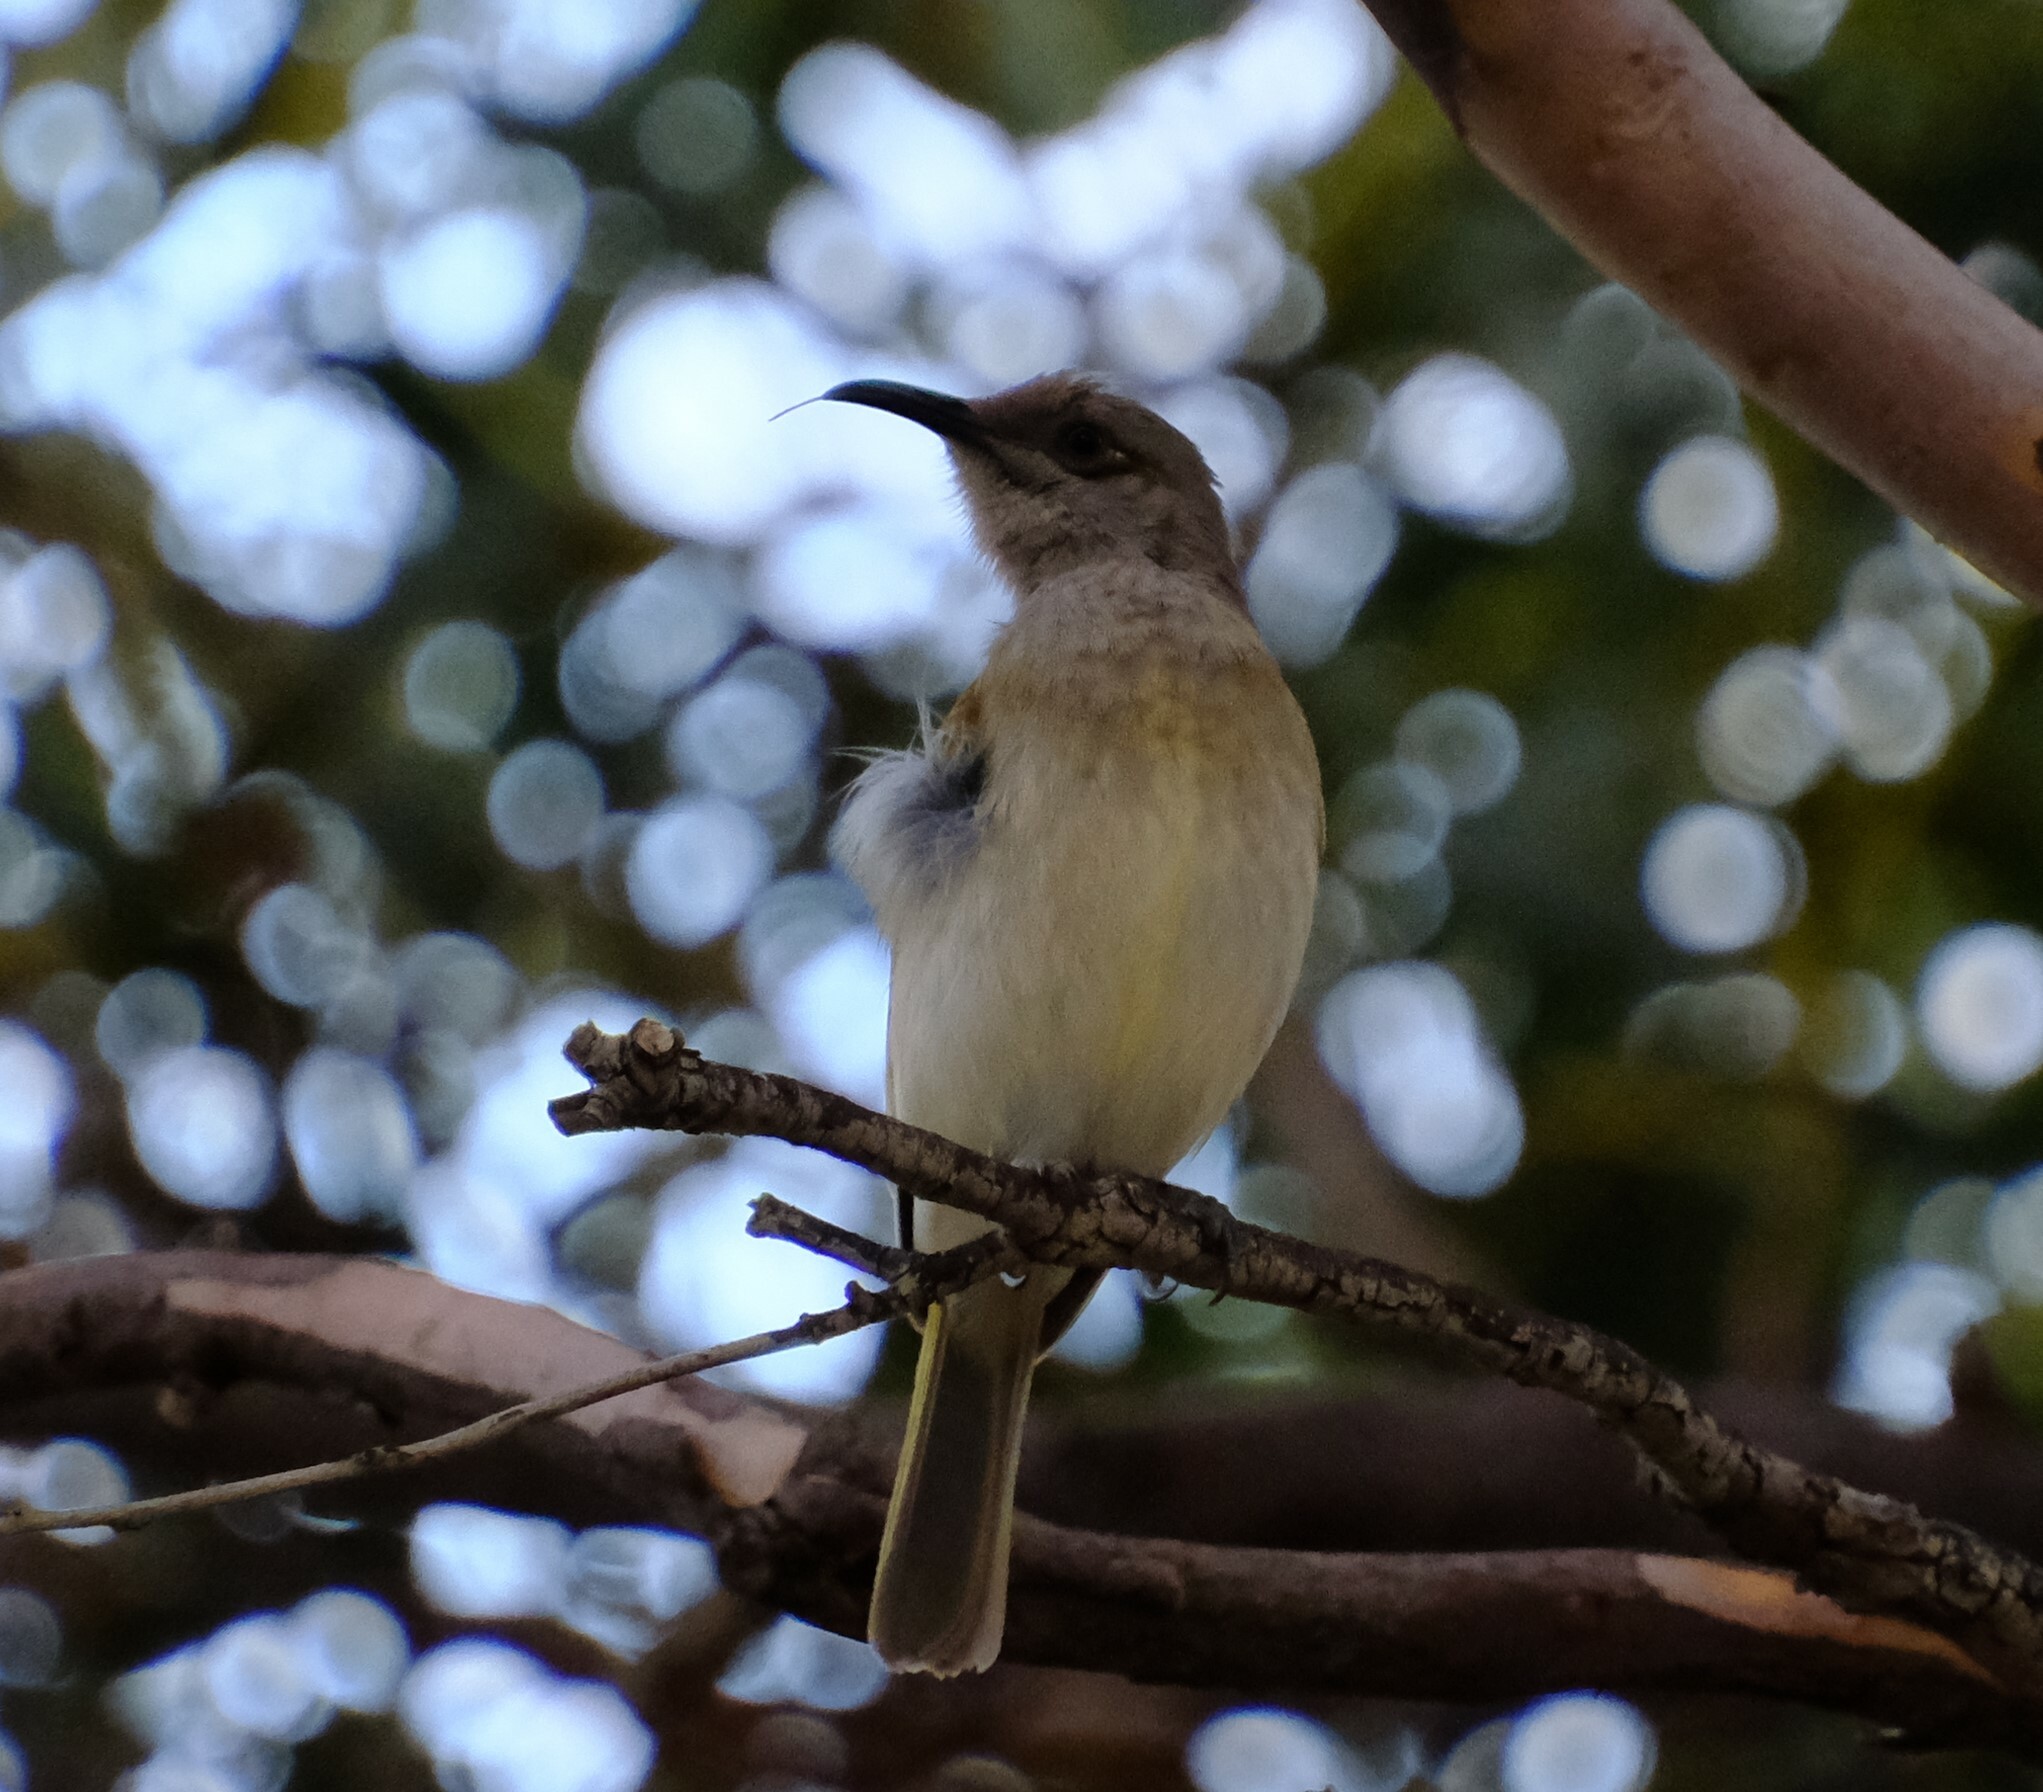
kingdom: Animalia
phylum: Chordata
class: Aves
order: Passeriformes
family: Meliphagidae
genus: Lichmera
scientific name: Lichmera indistincta
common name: Brown honeyeater
